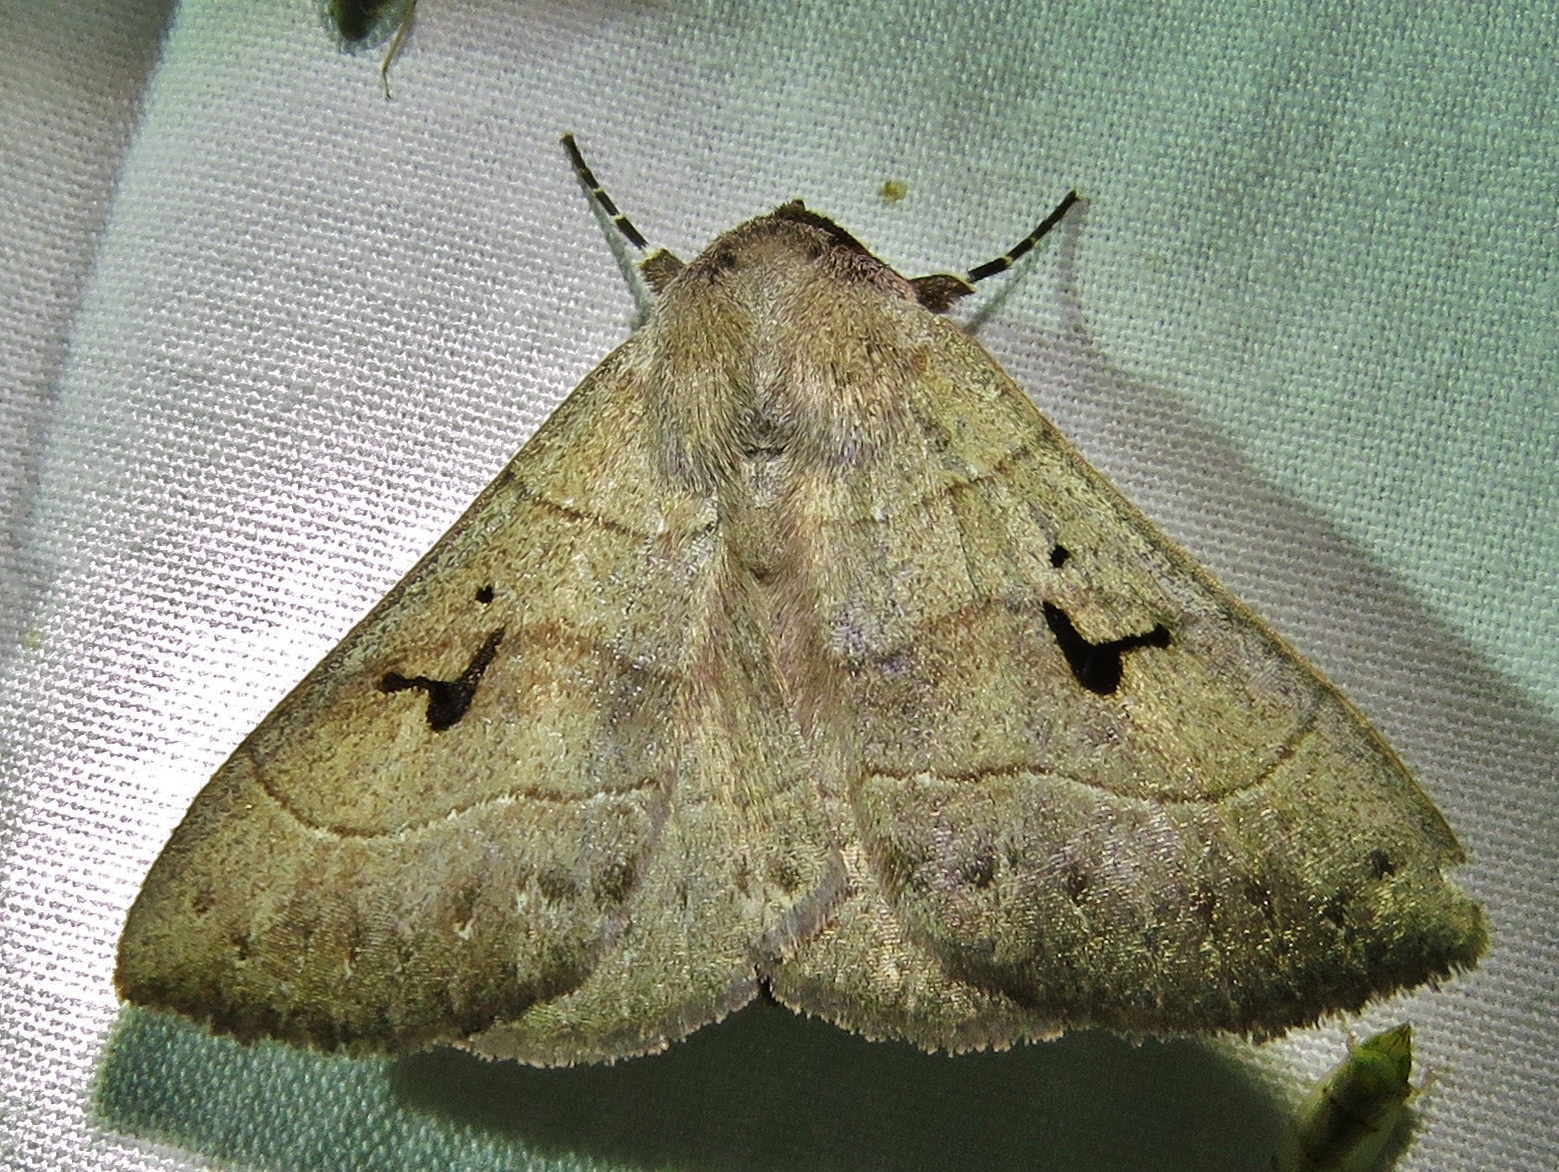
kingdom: Animalia
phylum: Arthropoda
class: Insecta
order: Lepidoptera
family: Erebidae
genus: Panopoda
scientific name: Panopoda carneicosta
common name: Brown panopoda moth
